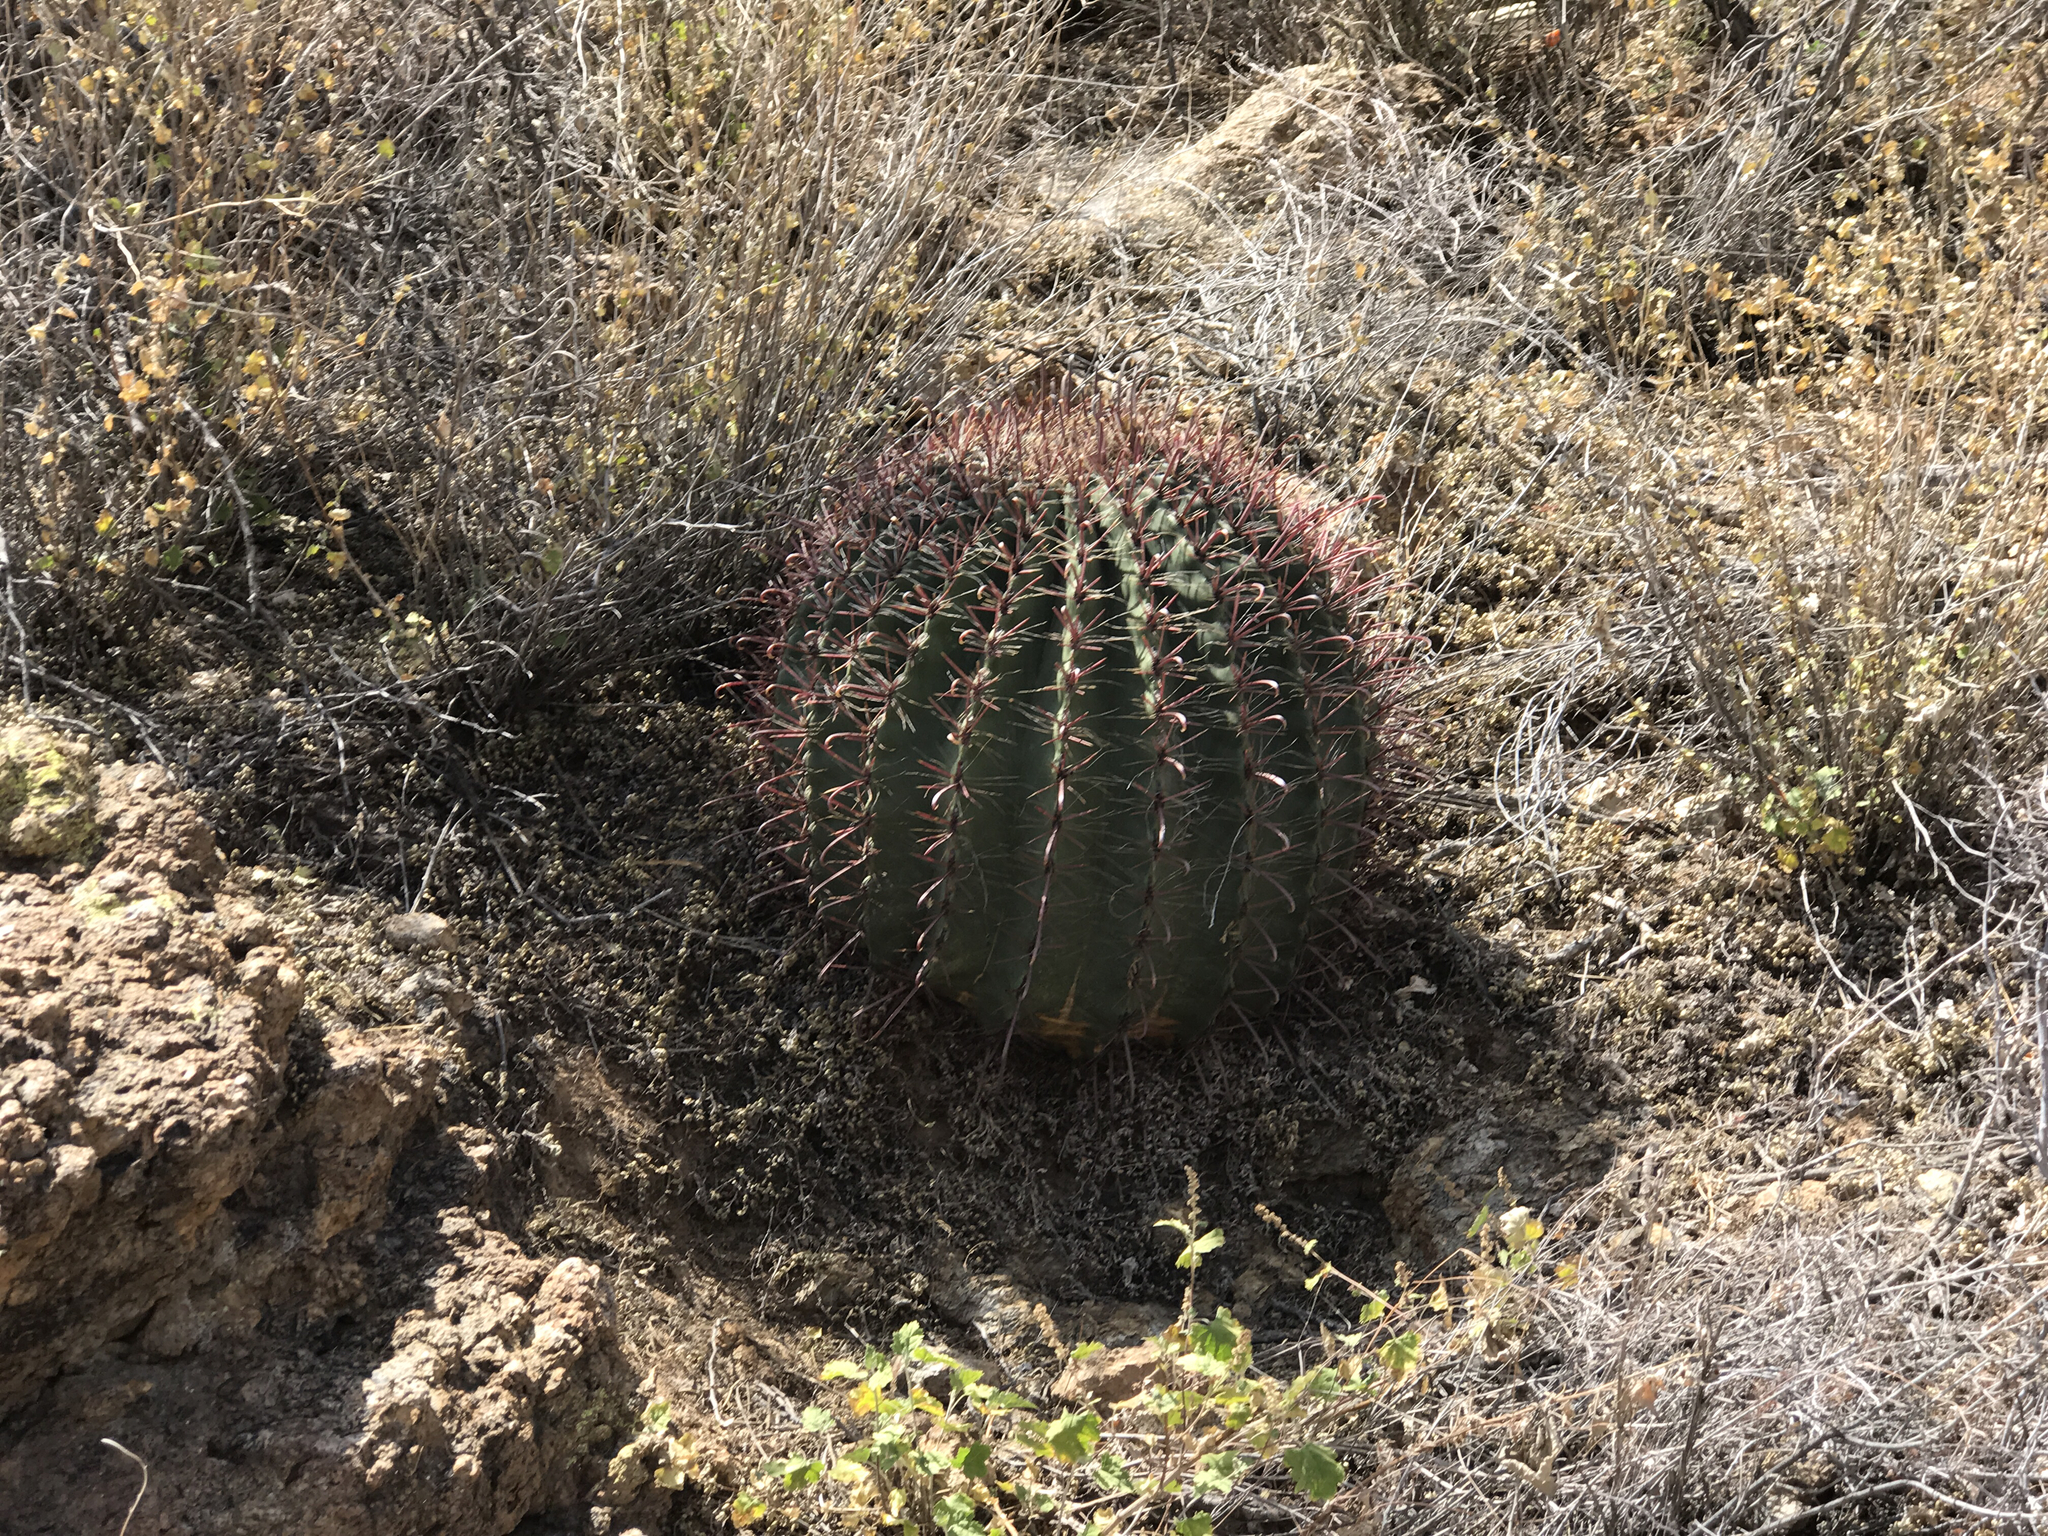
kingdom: Plantae
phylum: Tracheophyta
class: Magnoliopsida
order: Caryophyllales
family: Cactaceae
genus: Ferocactus
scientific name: Ferocactus wislizeni
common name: Candy barrel cactus
